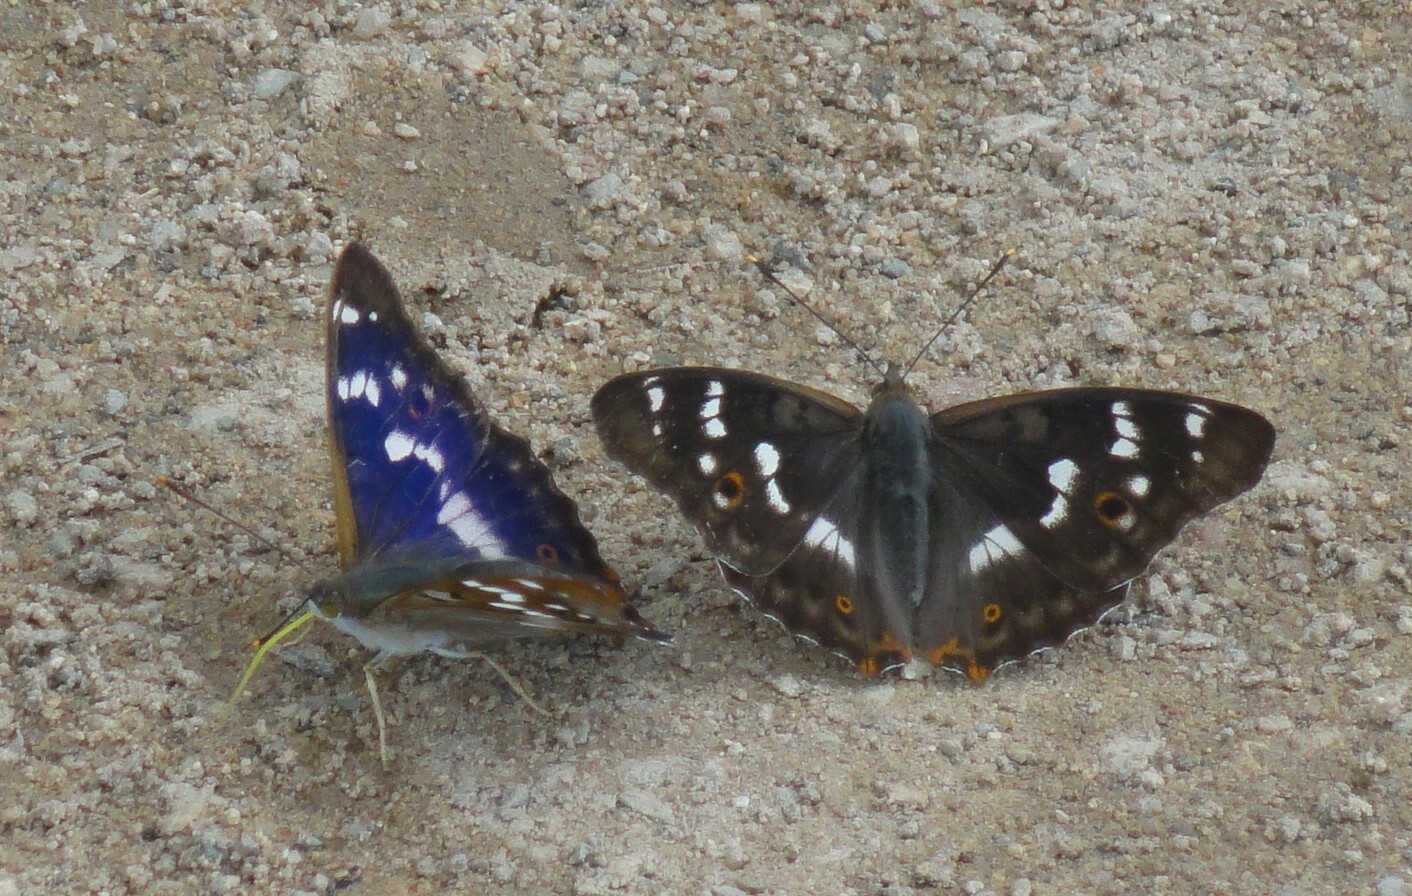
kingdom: Animalia
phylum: Arthropoda
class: Insecta
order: Lepidoptera
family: Nymphalidae
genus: Apatura
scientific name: Apatura ilia
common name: Lesser purple emperor
